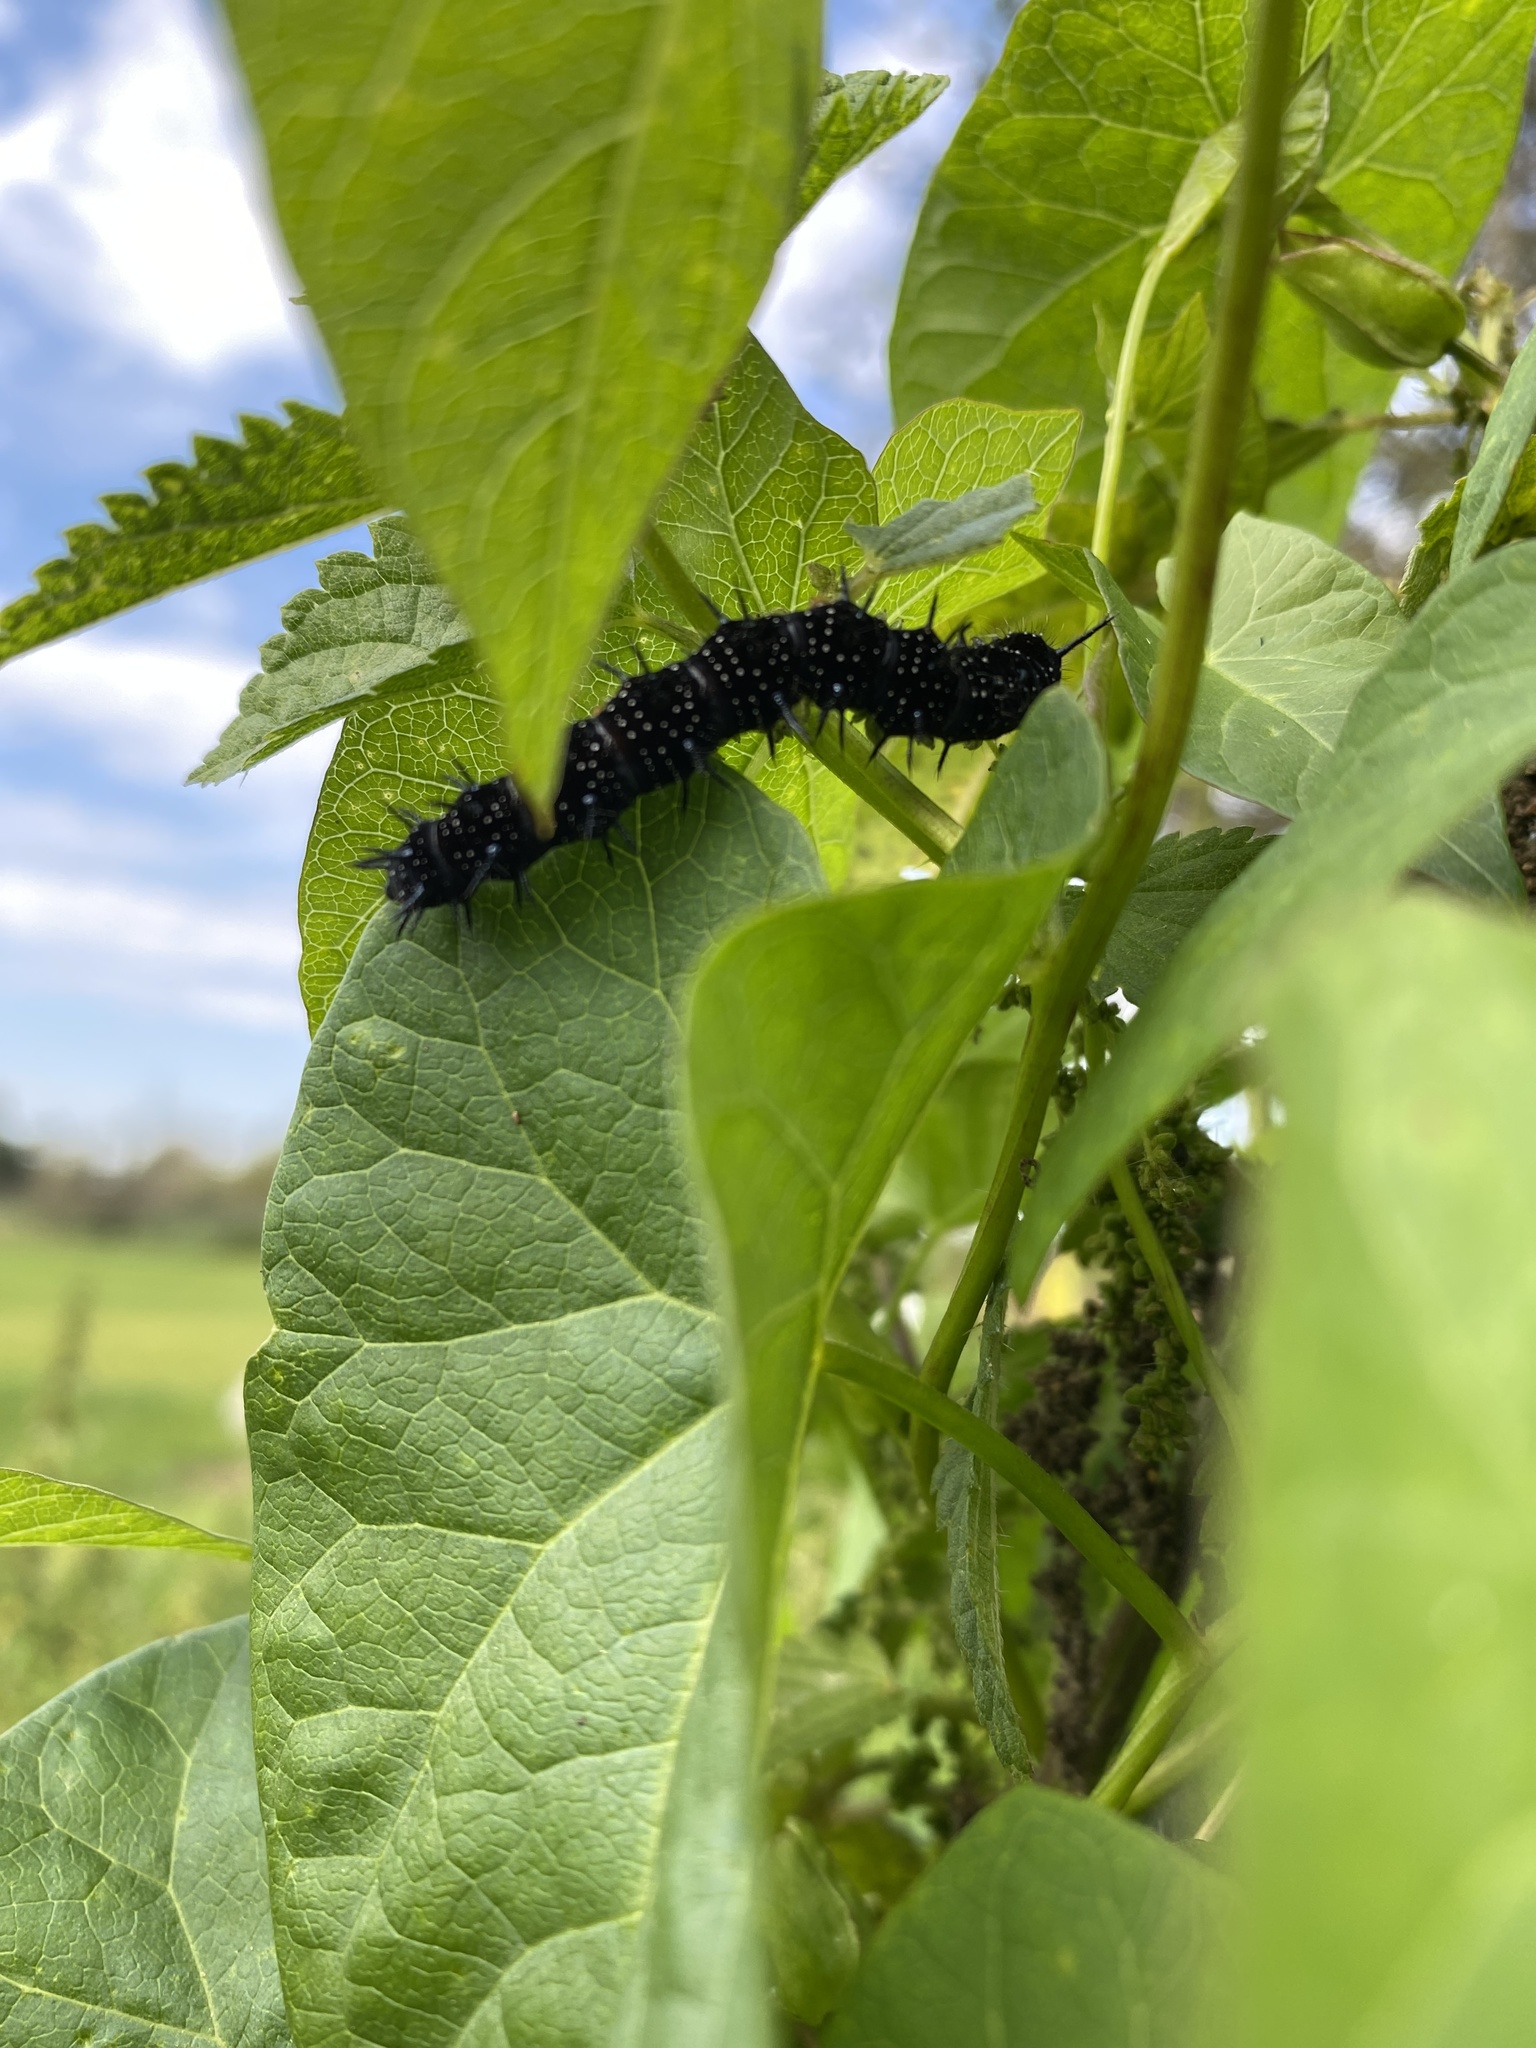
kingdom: Animalia
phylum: Arthropoda
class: Insecta
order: Lepidoptera
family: Nymphalidae
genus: Aglais
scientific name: Aglais io
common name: Peacock
